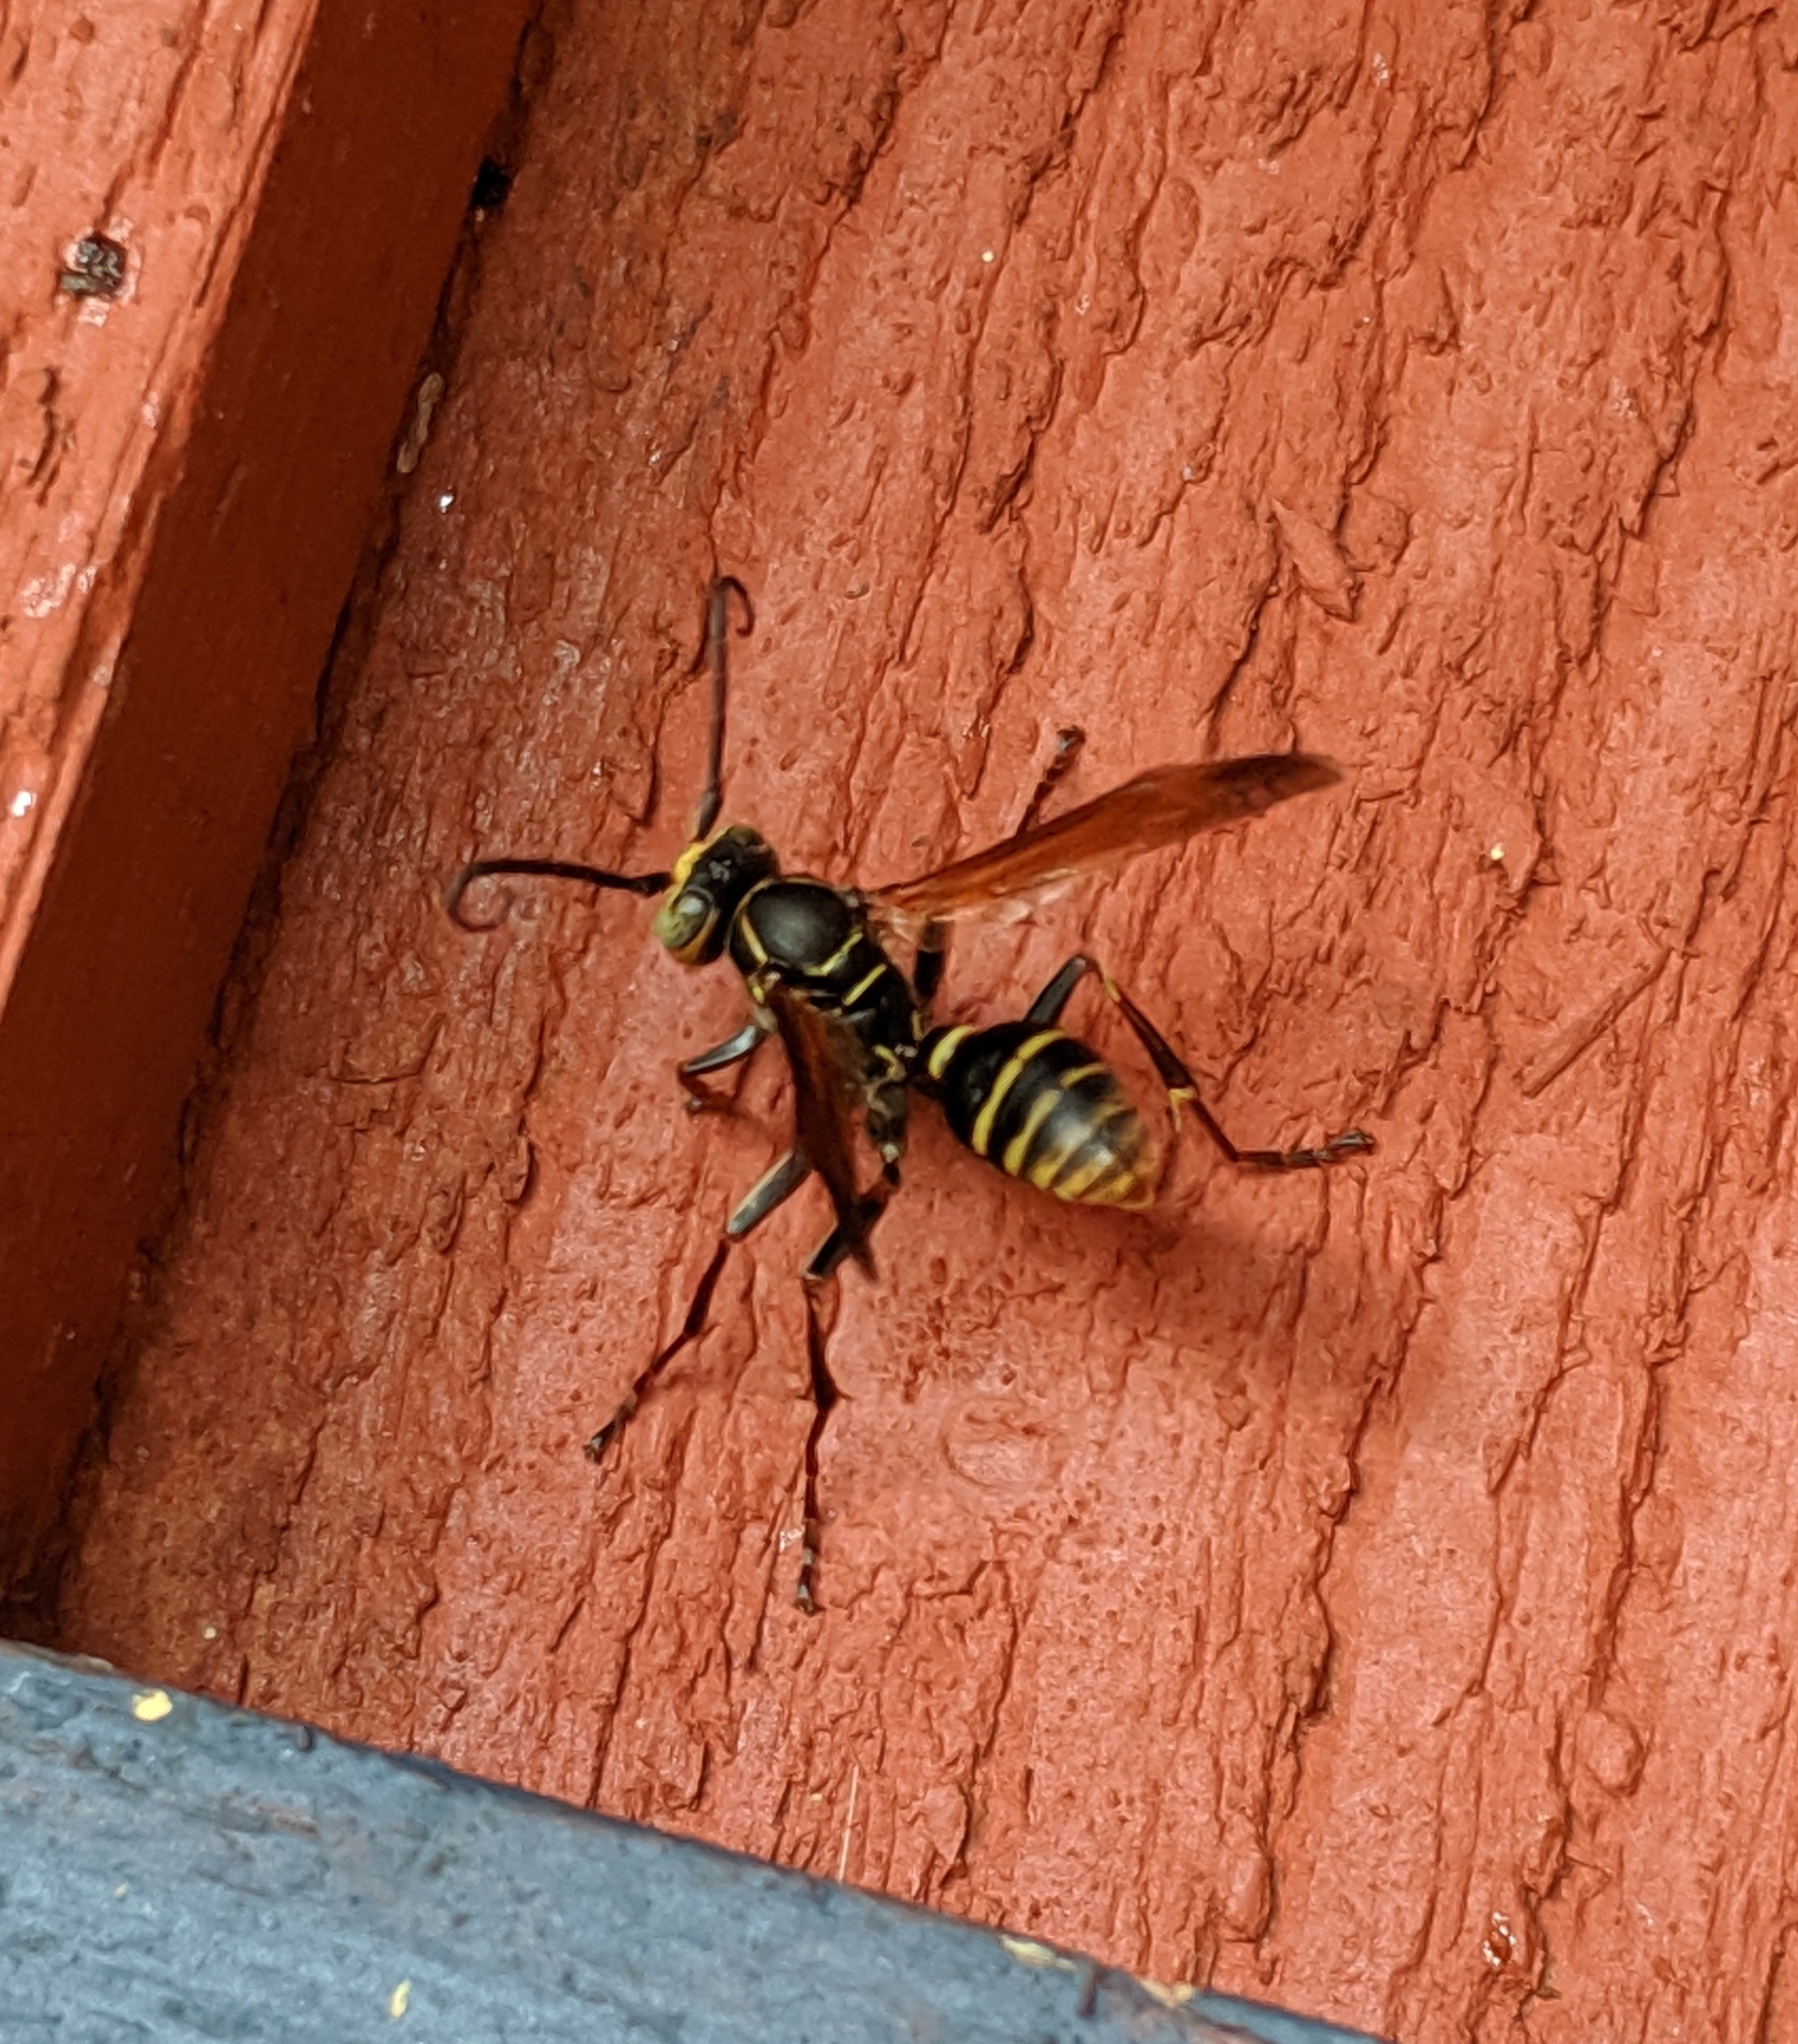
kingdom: Animalia
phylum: Arthropoda
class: Insecta
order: Hymenoptera
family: Vespidae
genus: Mischocyttarus
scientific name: Mischocyttarus flavitarsis
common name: Wasp
